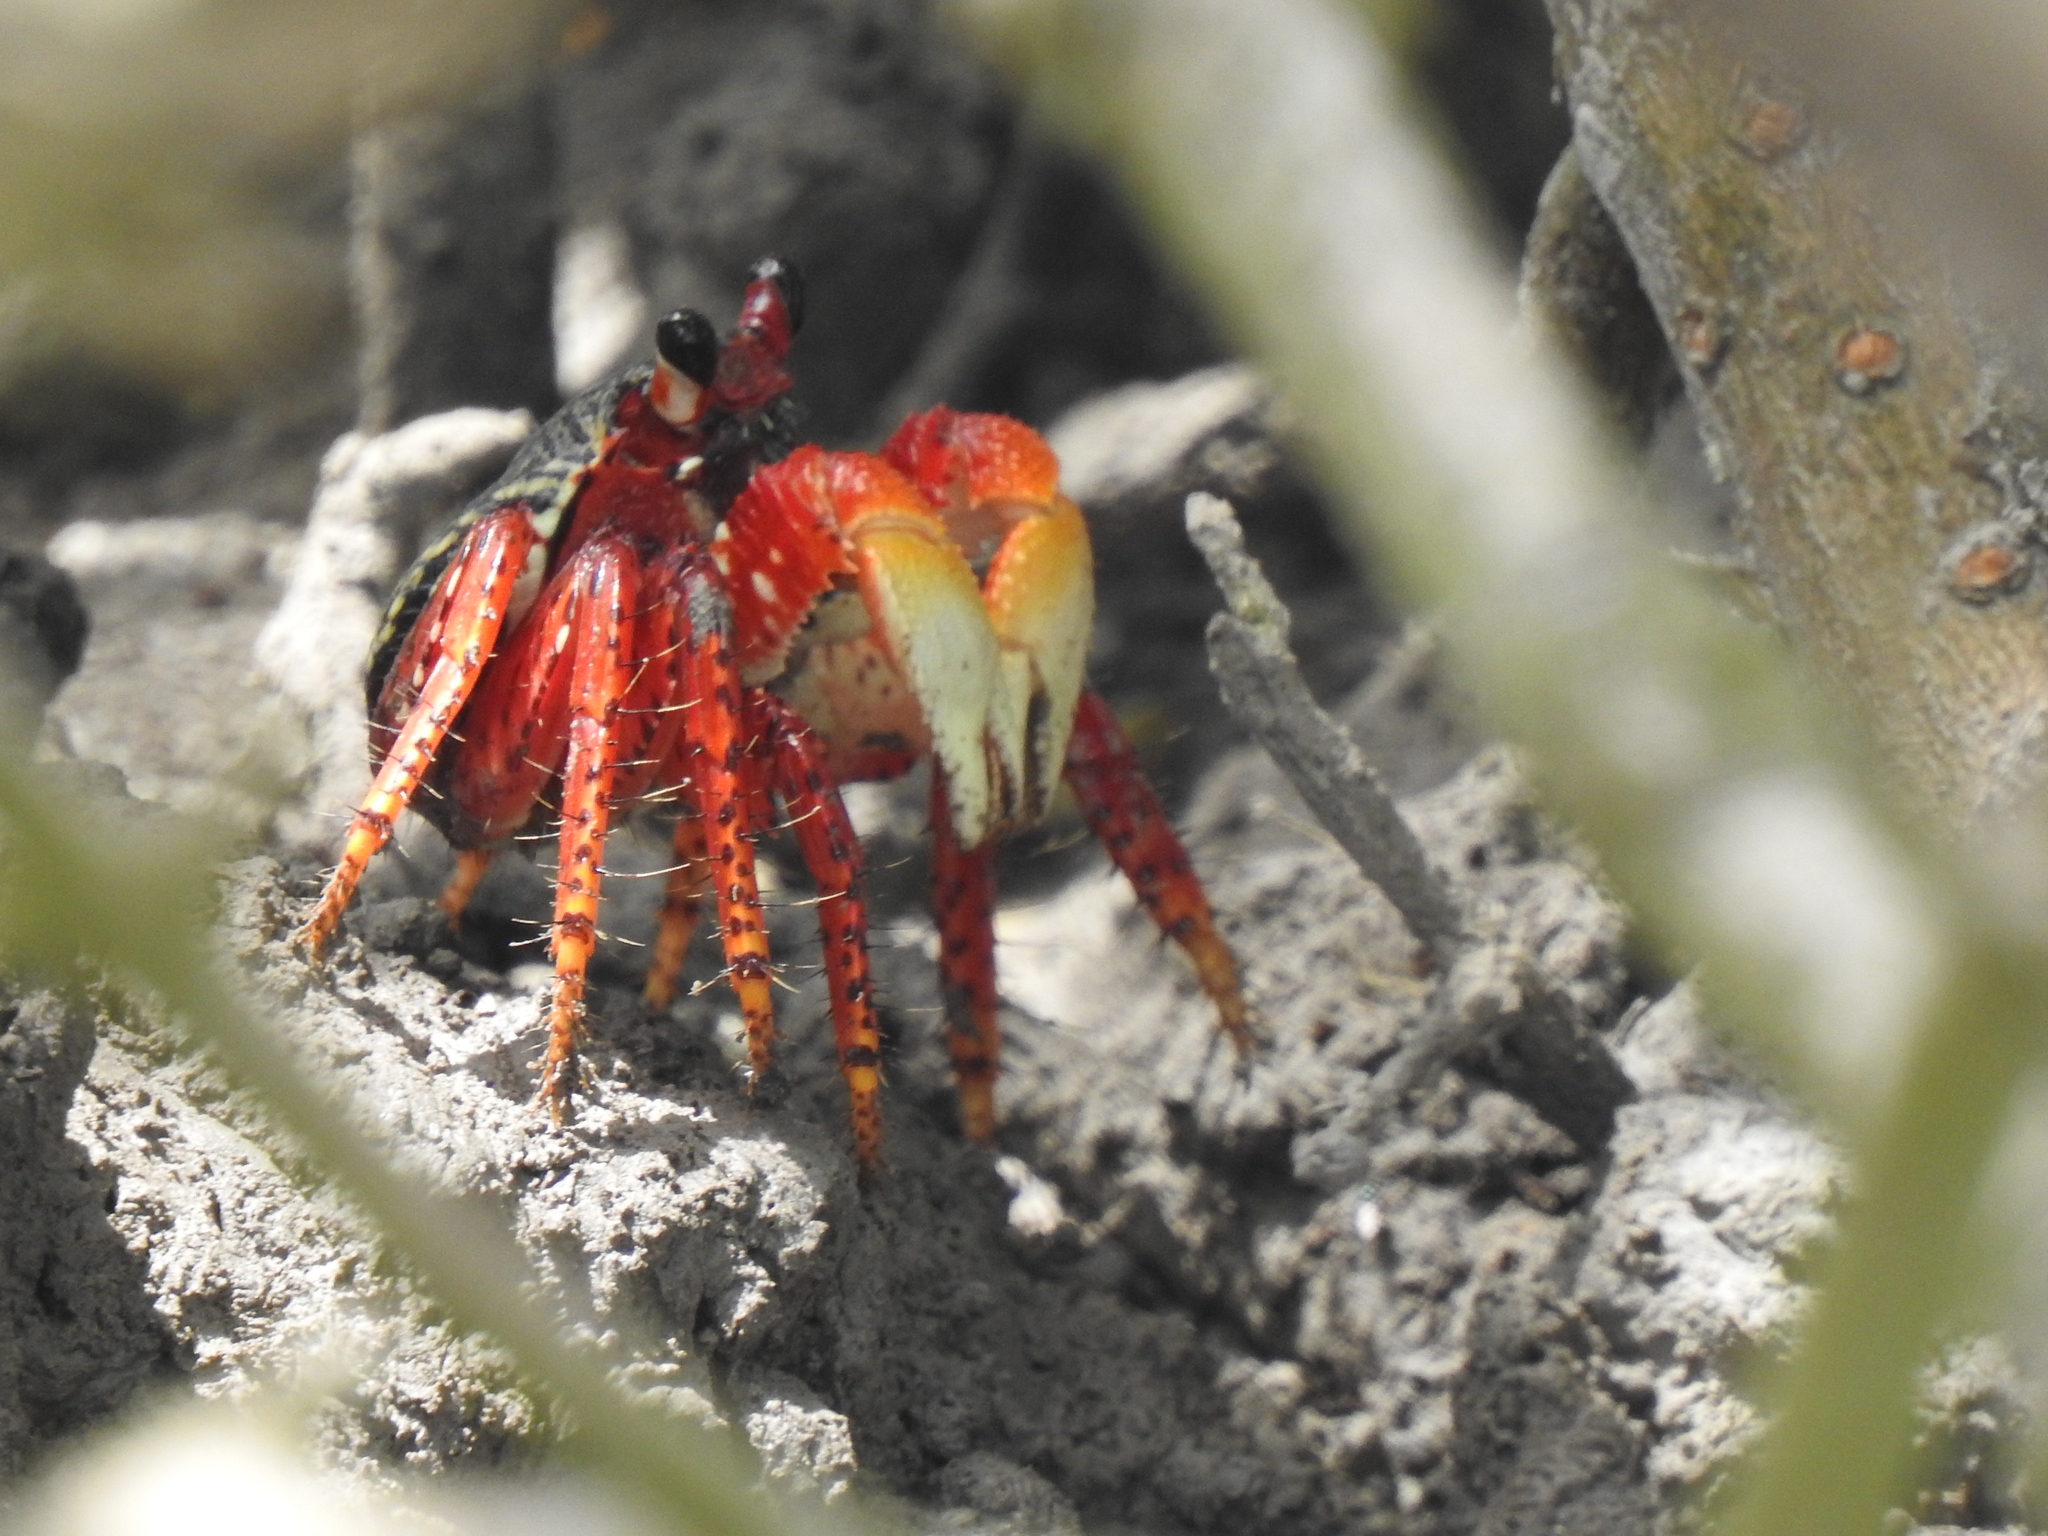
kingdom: Animalia
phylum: Arthropoda
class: Malacostraca
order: Decapoda
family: Grapsidae
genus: Goniopsis
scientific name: Goniopsis cruentata
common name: Mangrove crab
